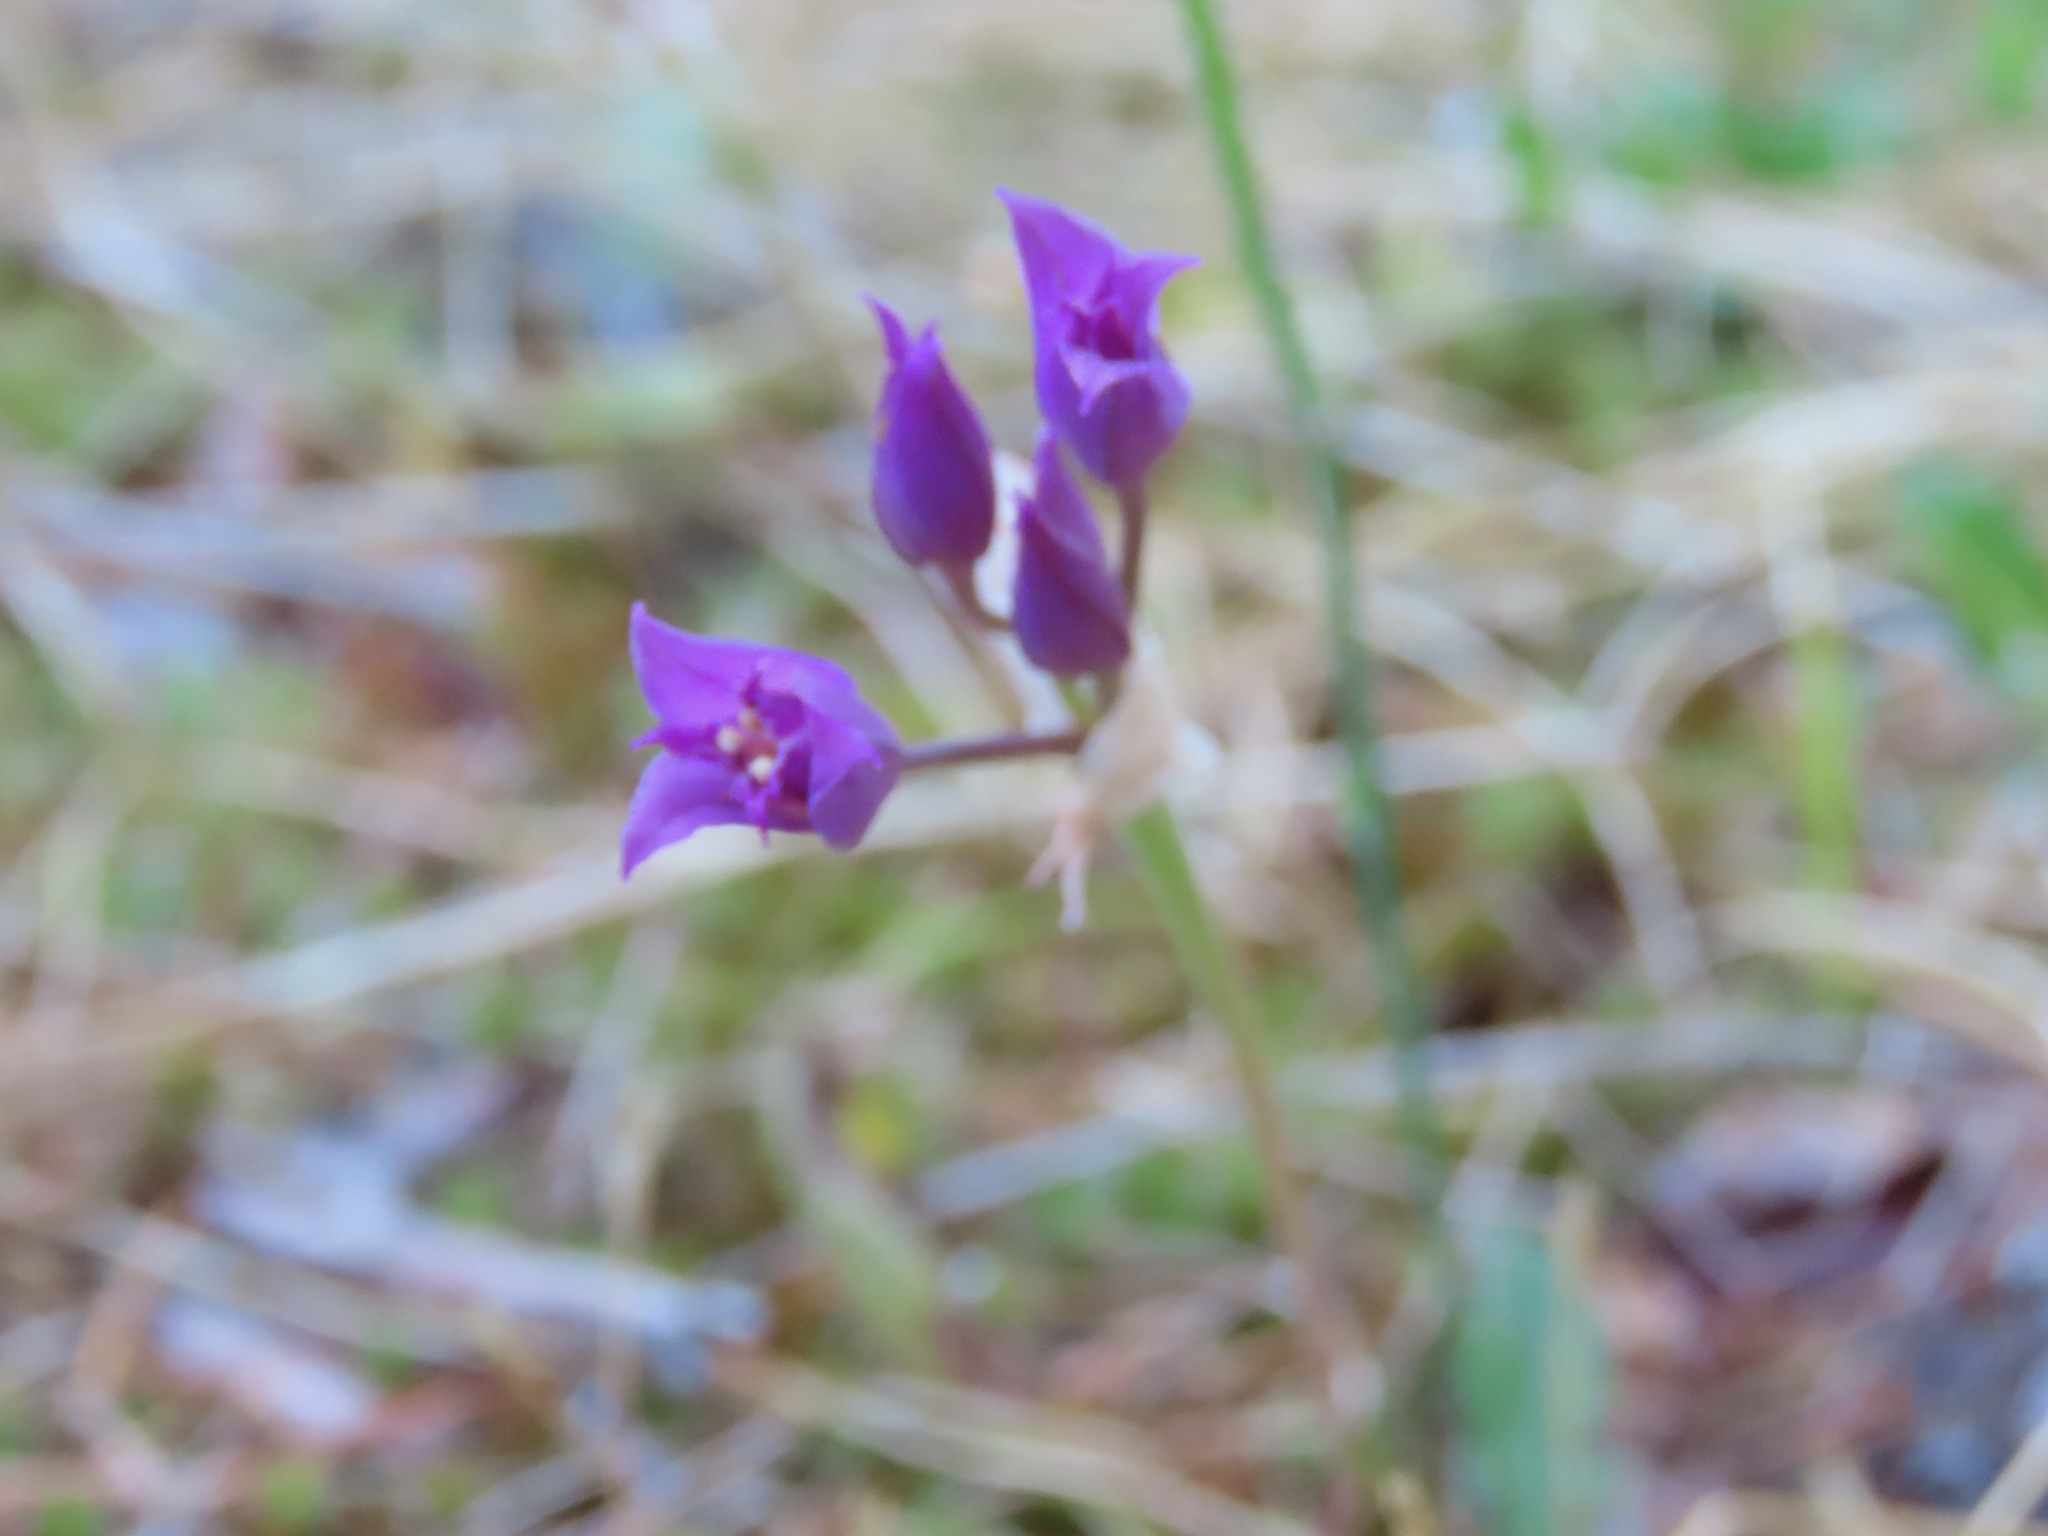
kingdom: Plantae
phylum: Tracheophyta
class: Liliopsida
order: Asparagales
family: Amaryllidaceae
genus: Allium
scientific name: Allium acuminatum
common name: Hooker's onion
